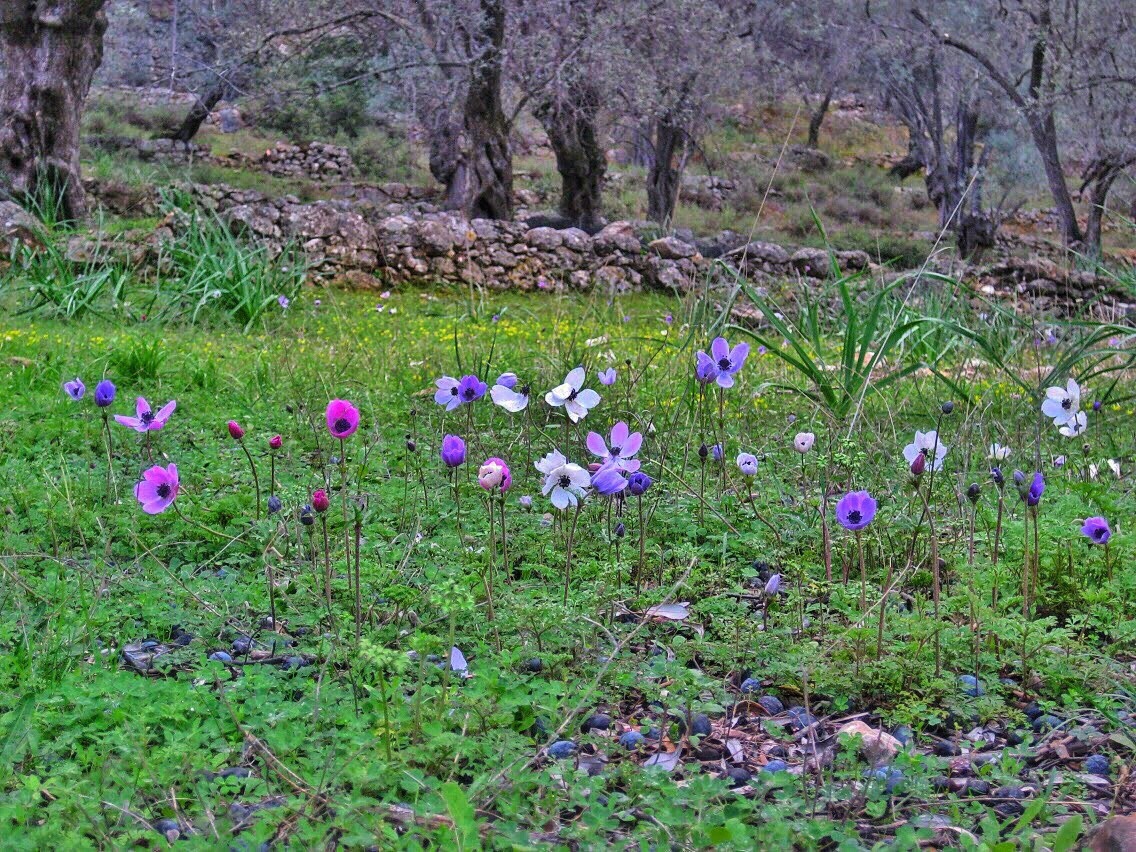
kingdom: Plantae
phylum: Tracheophyta
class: Magnoliopsida
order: Ranunculales
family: Ranunculaceae
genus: Anemone
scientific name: Anemone coronaria
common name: Poppy anemone
